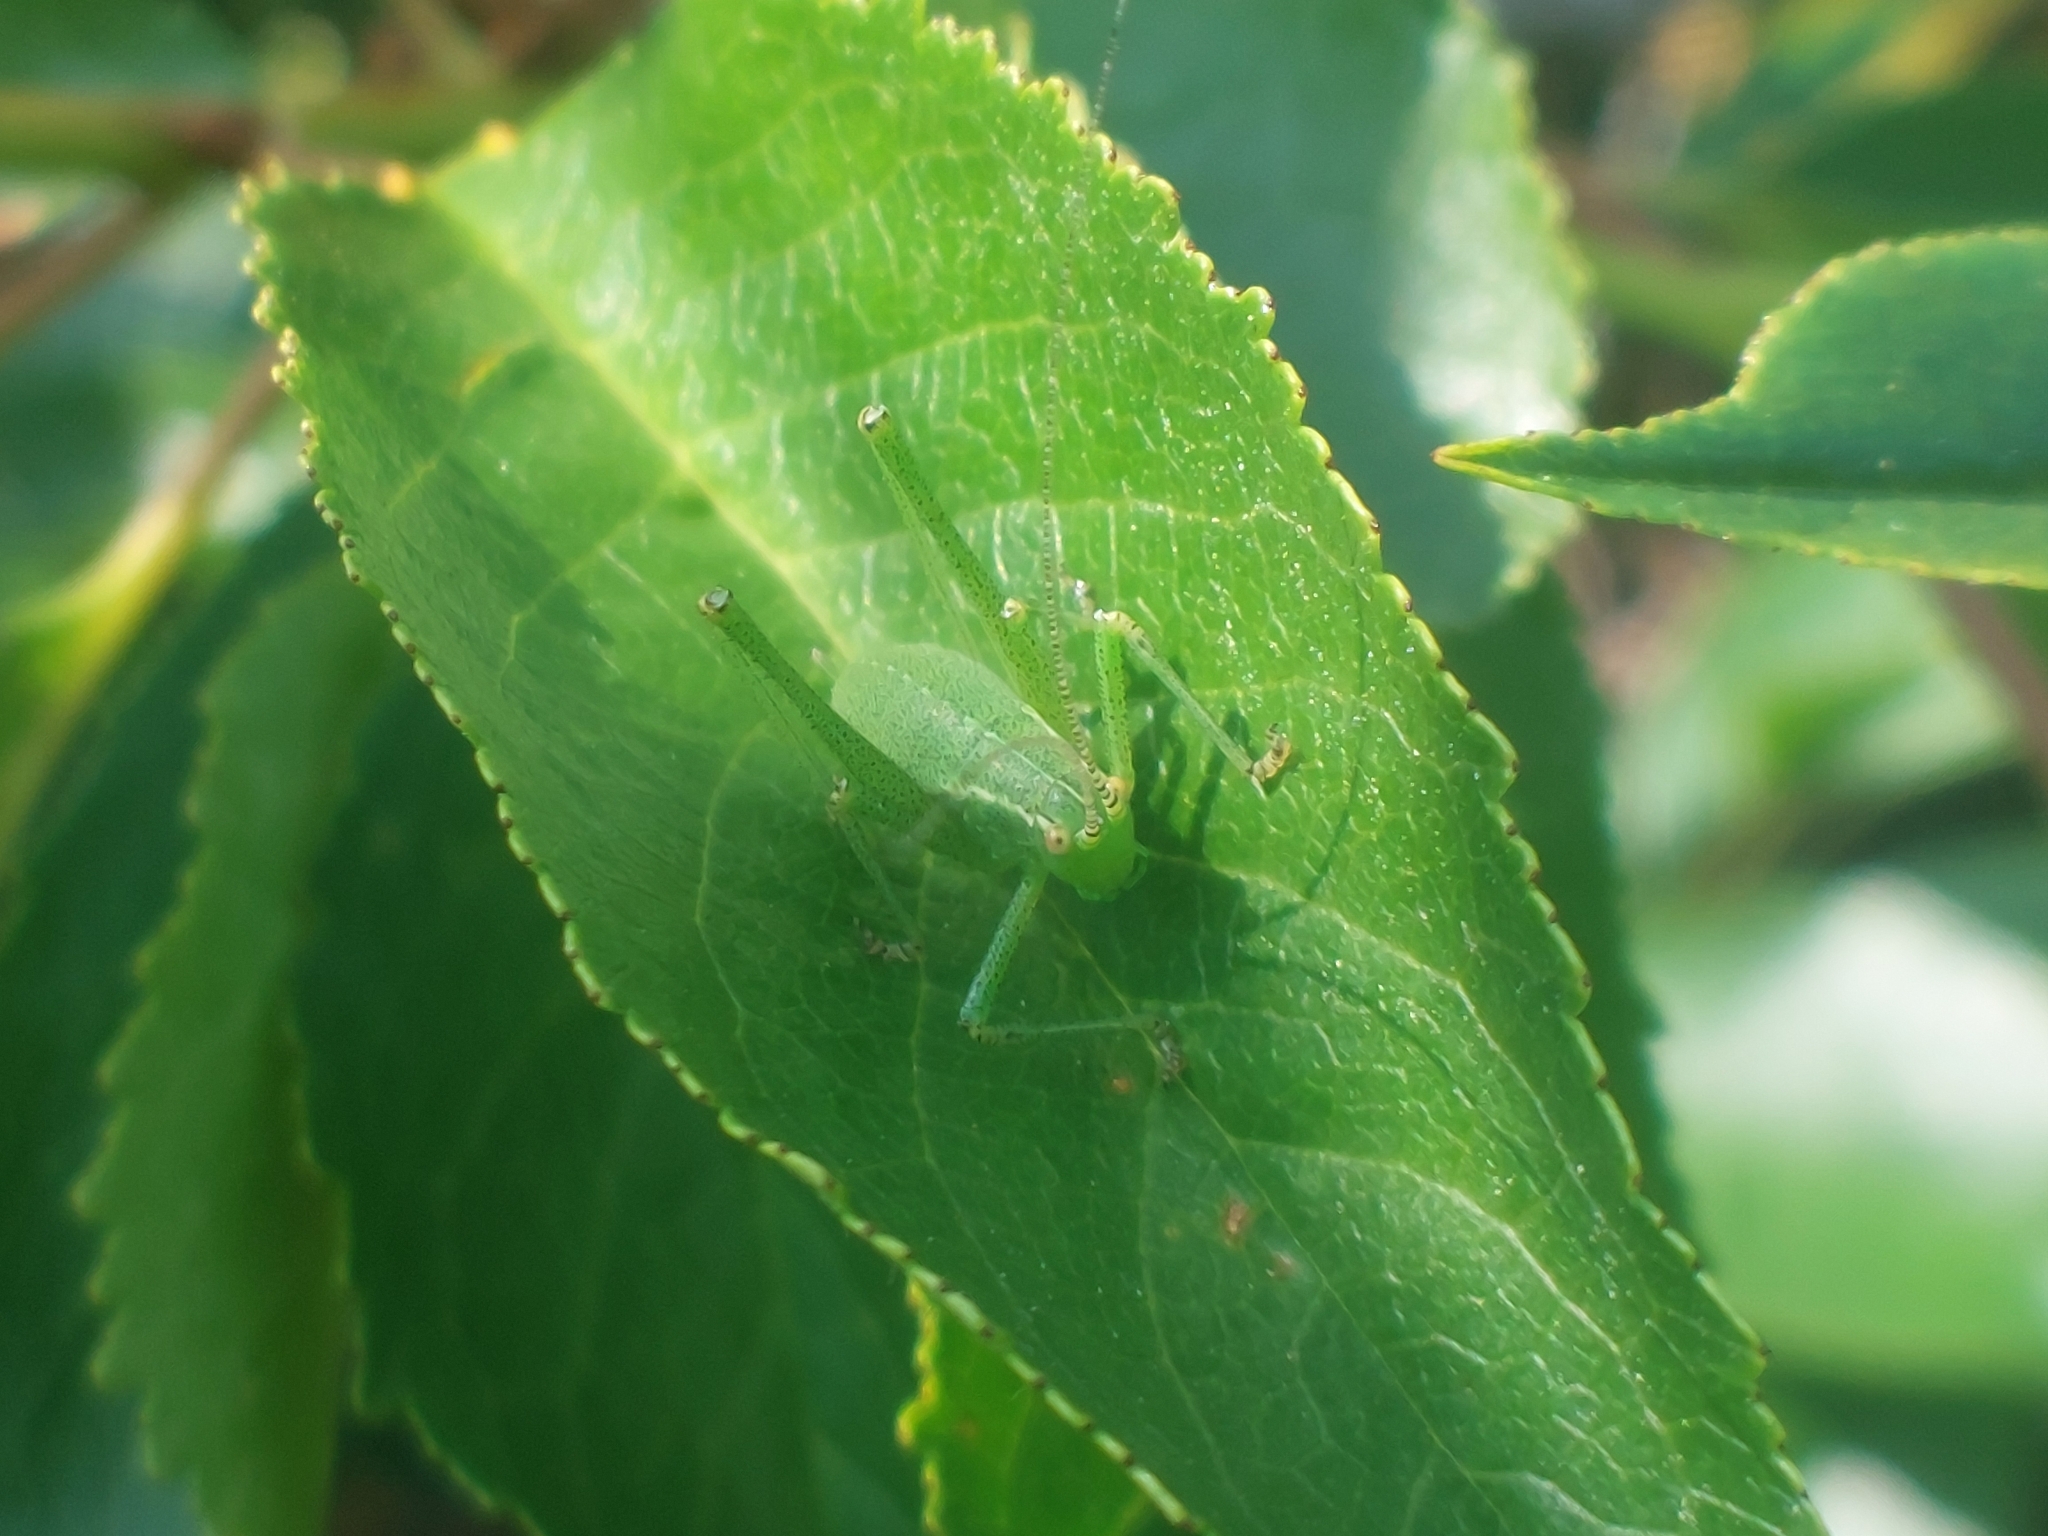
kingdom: Animalia
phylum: Arthropoda
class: Insecta
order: Orthoptera
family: Tettigoniidae
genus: Leptophyes
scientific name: Leptophyes punctatissima
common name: Speckled bush-cricket
